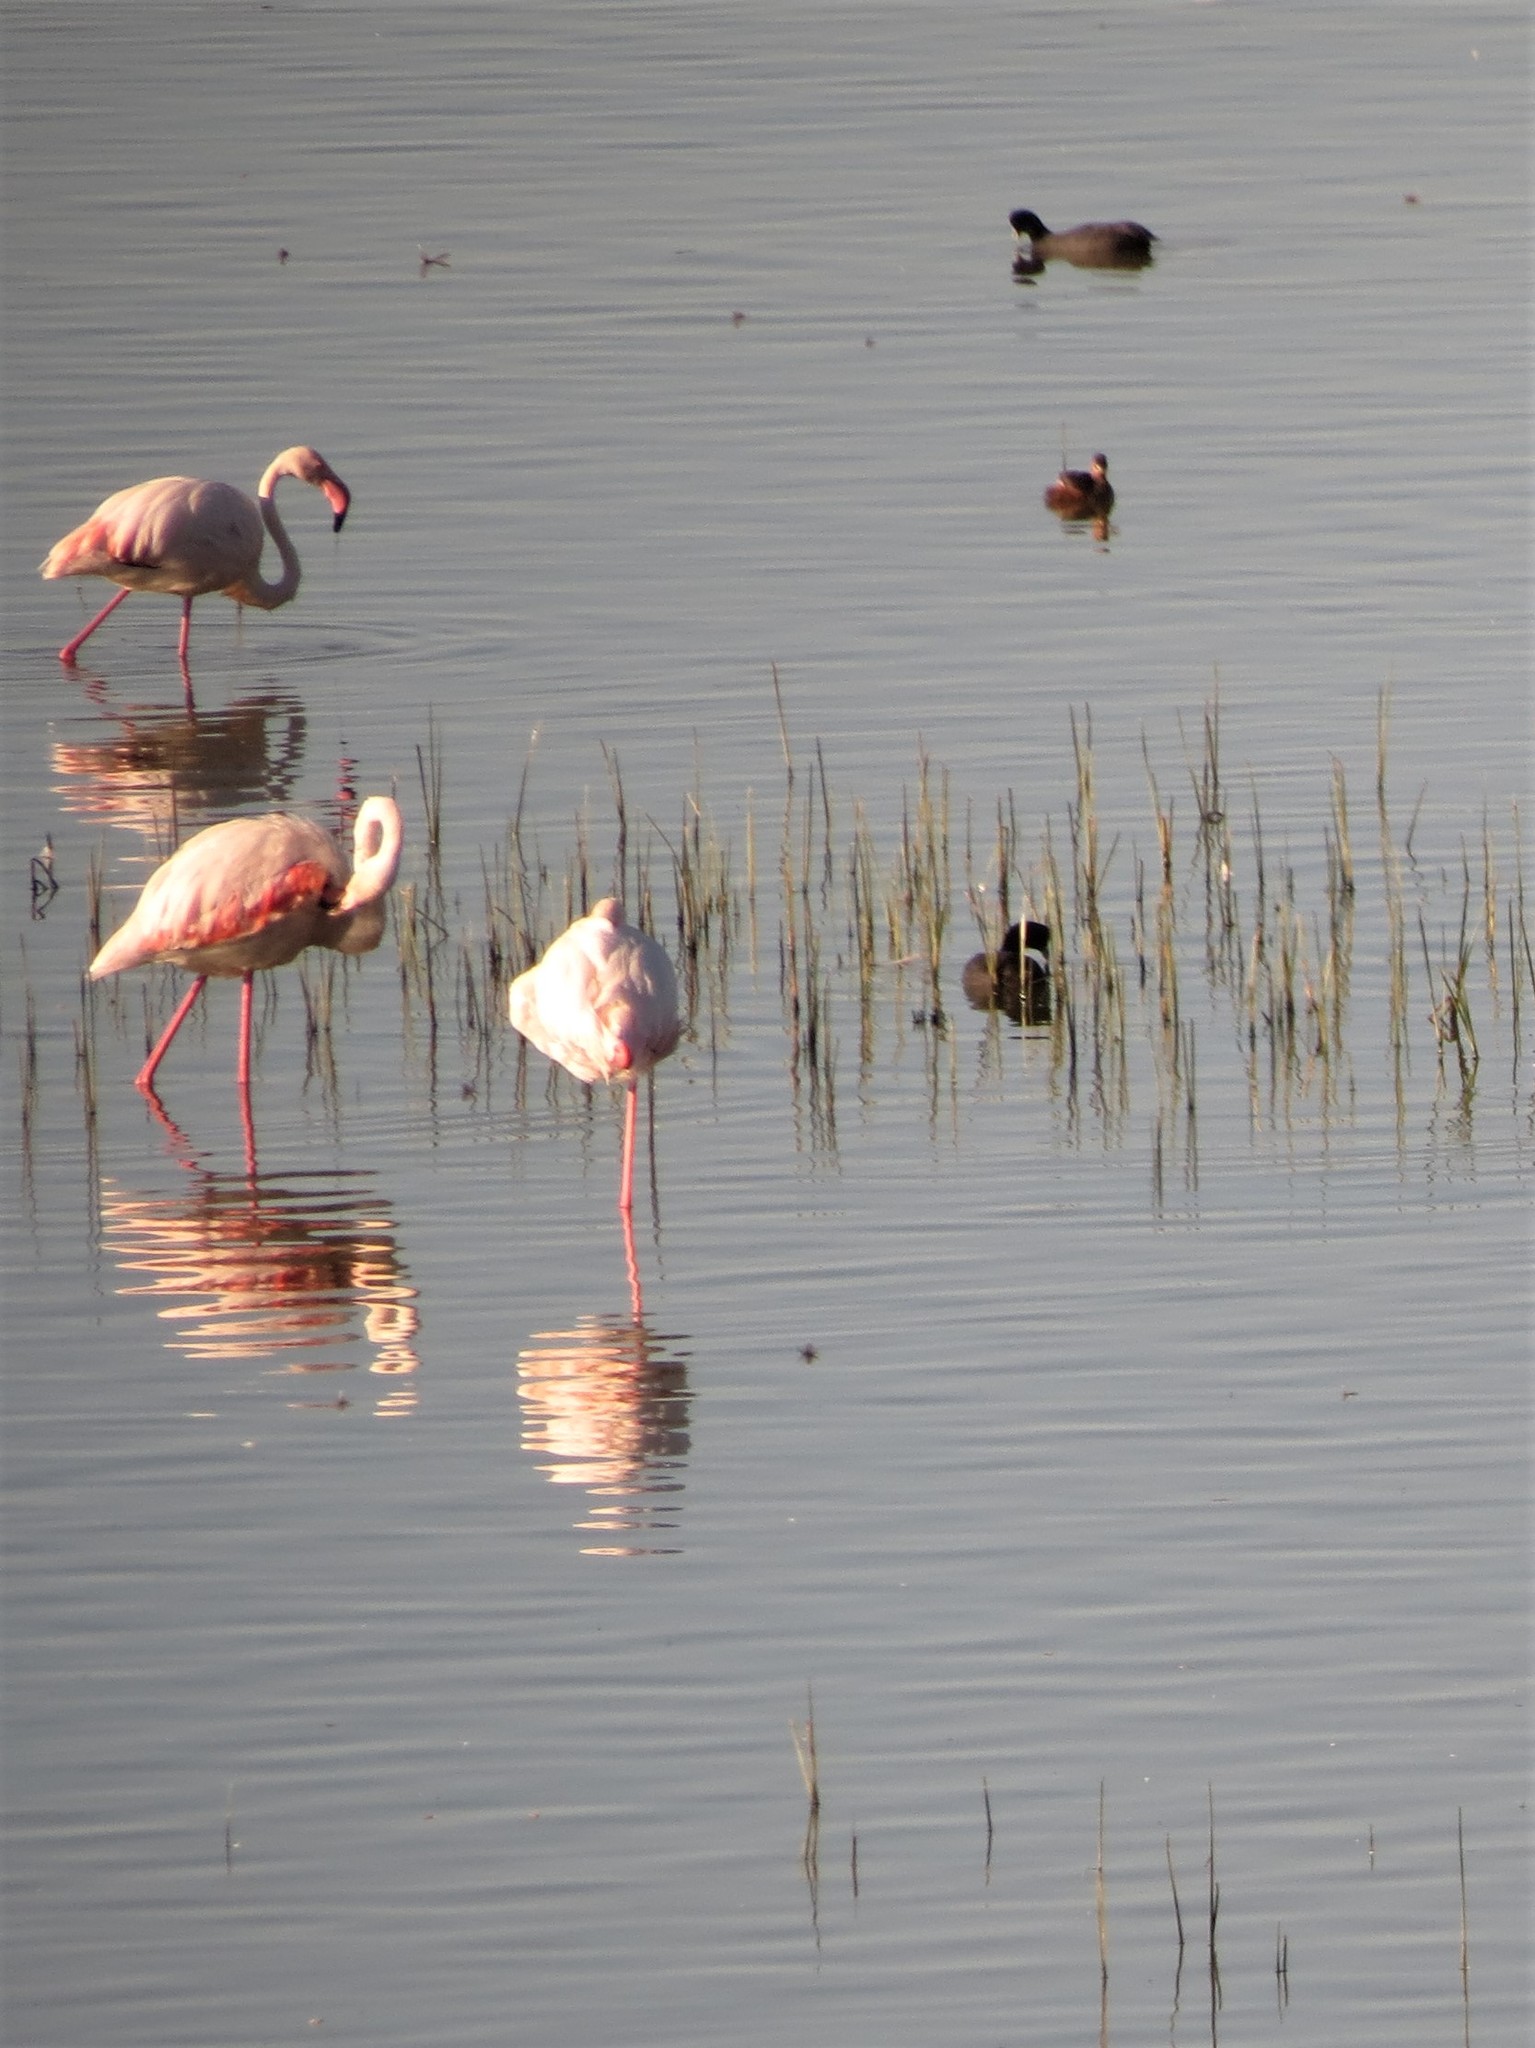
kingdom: Animalia
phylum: Chordata
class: Aves
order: Phoenicopteriformes
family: Phoenicopteridae
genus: Phoenicopterus
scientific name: Phoenicopterus roseus
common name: Greater flamingo
